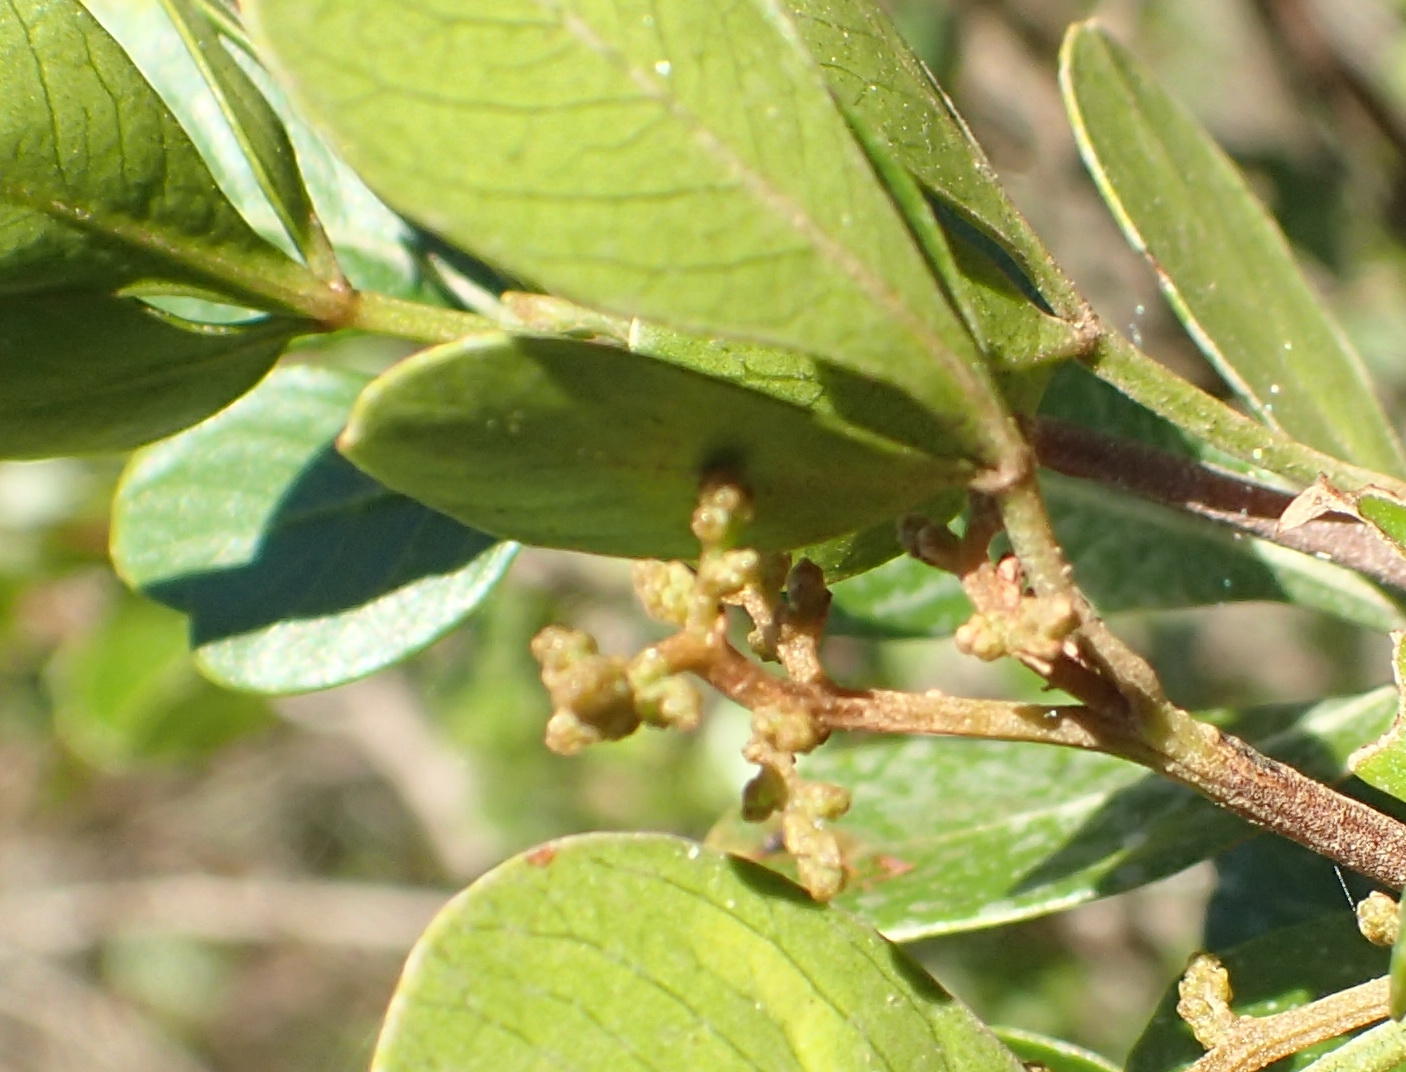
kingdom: Plantae
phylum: Tracheophyta
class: Magnoliopsida
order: Sapindales
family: Anacardiaceae
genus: Searsia
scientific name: Searsia glauca
